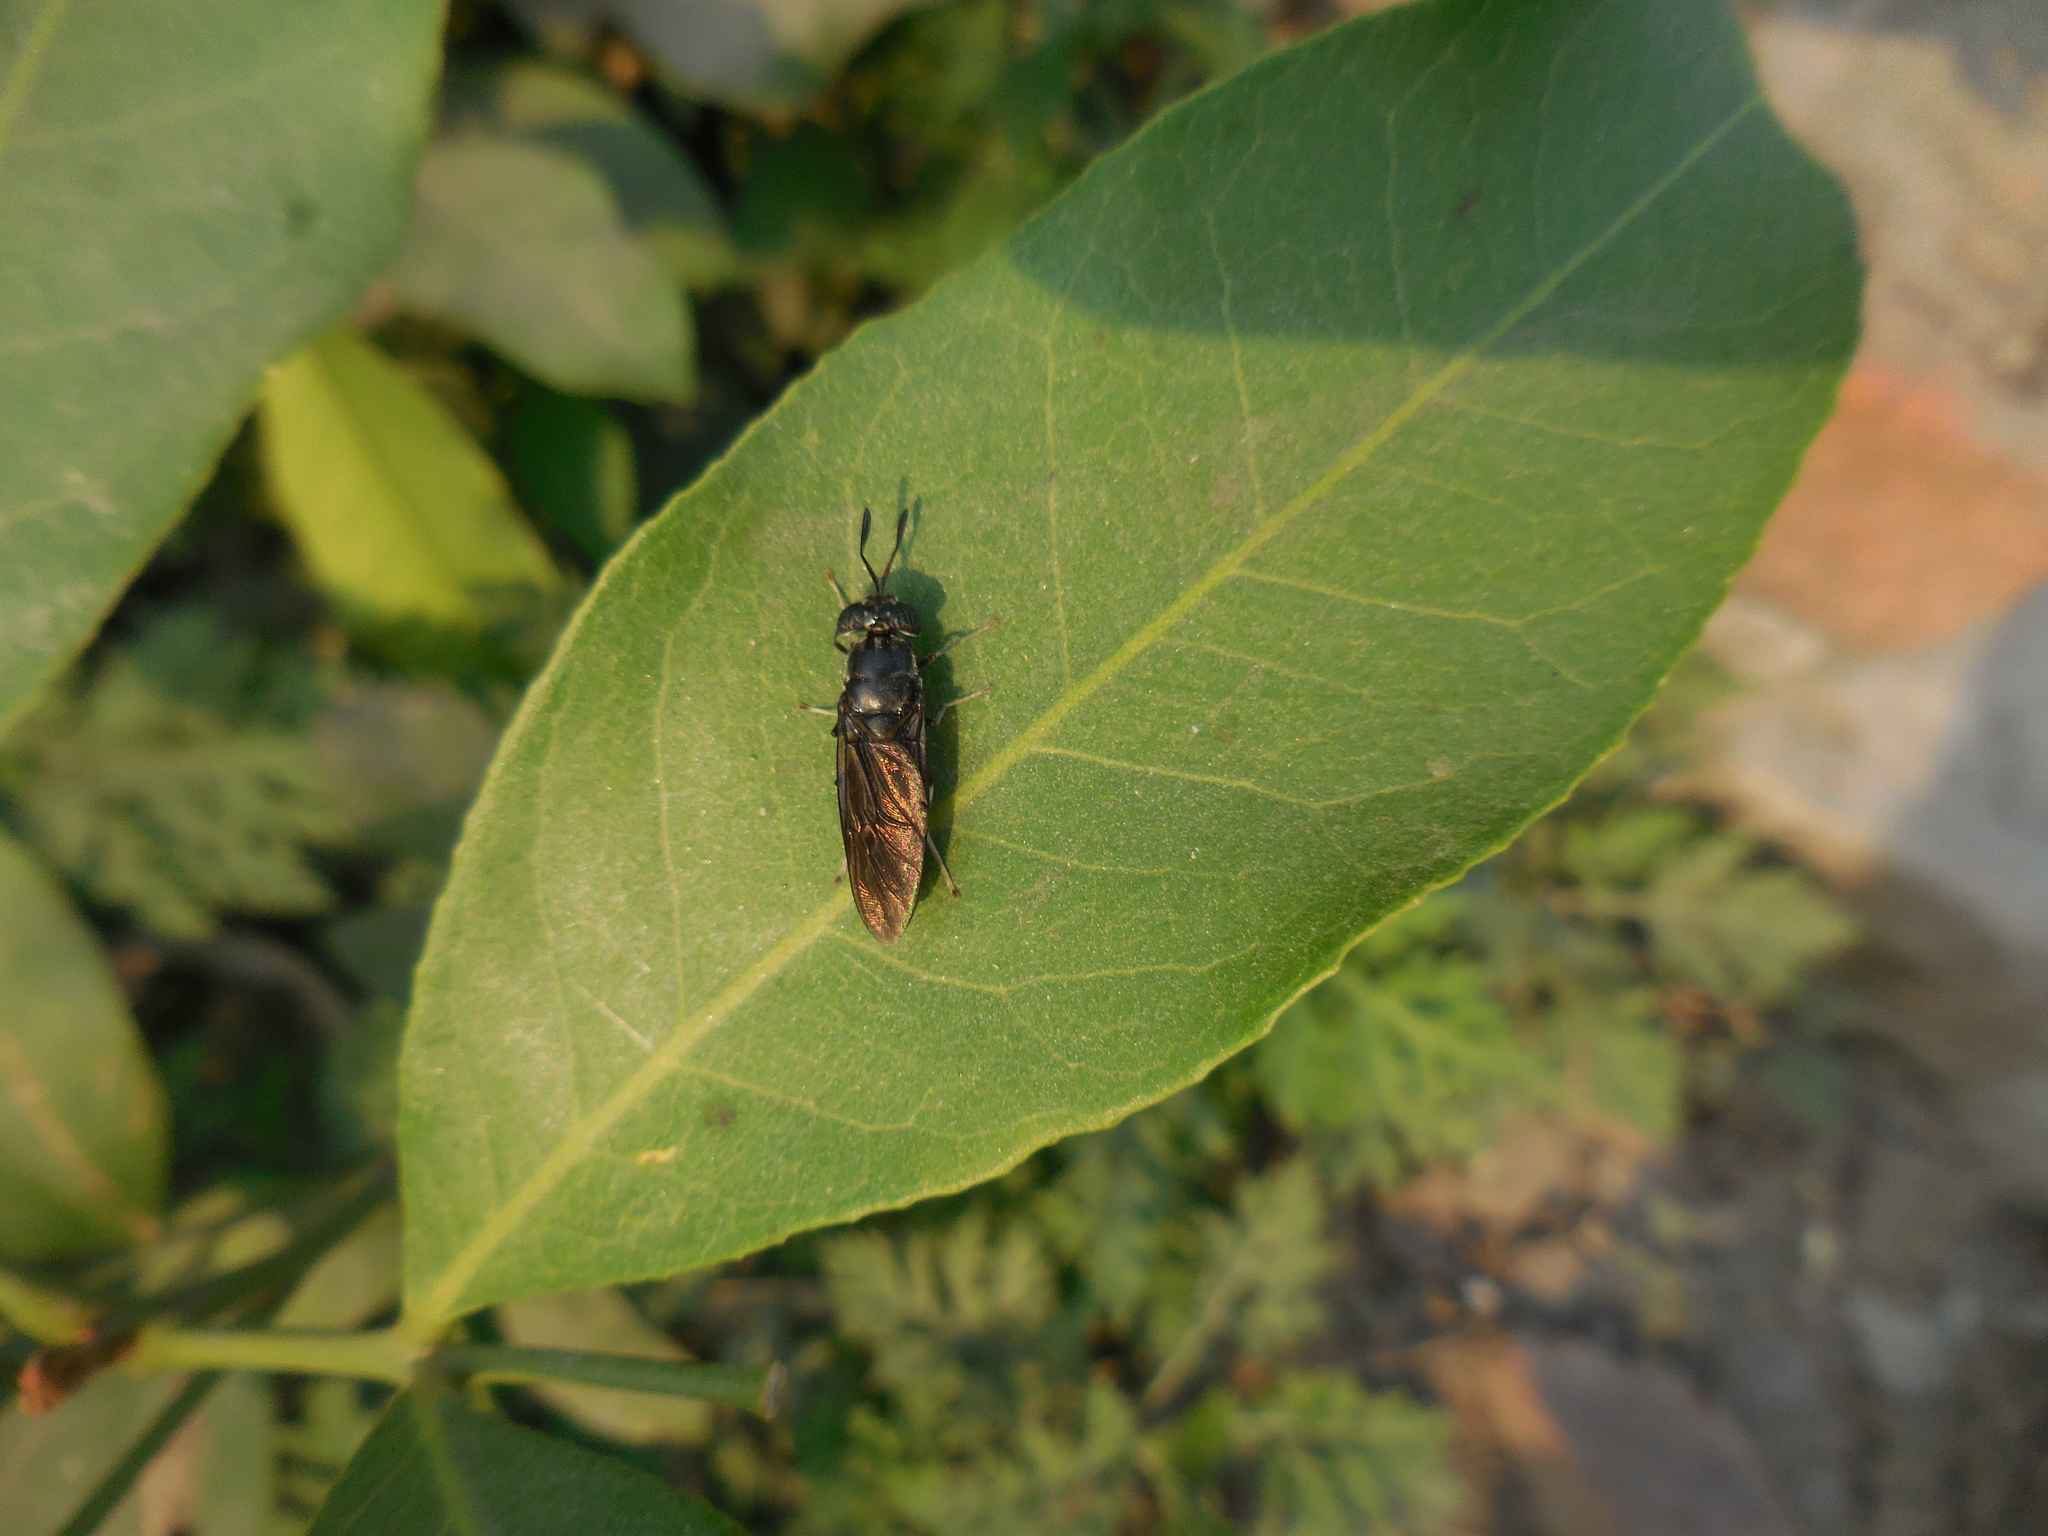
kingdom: Animalia
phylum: Arthropoda
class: Insecta
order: Diptera
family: Stratiomyidae
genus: Hermetia
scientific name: Hermetia illucens
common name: Black soldier fly
